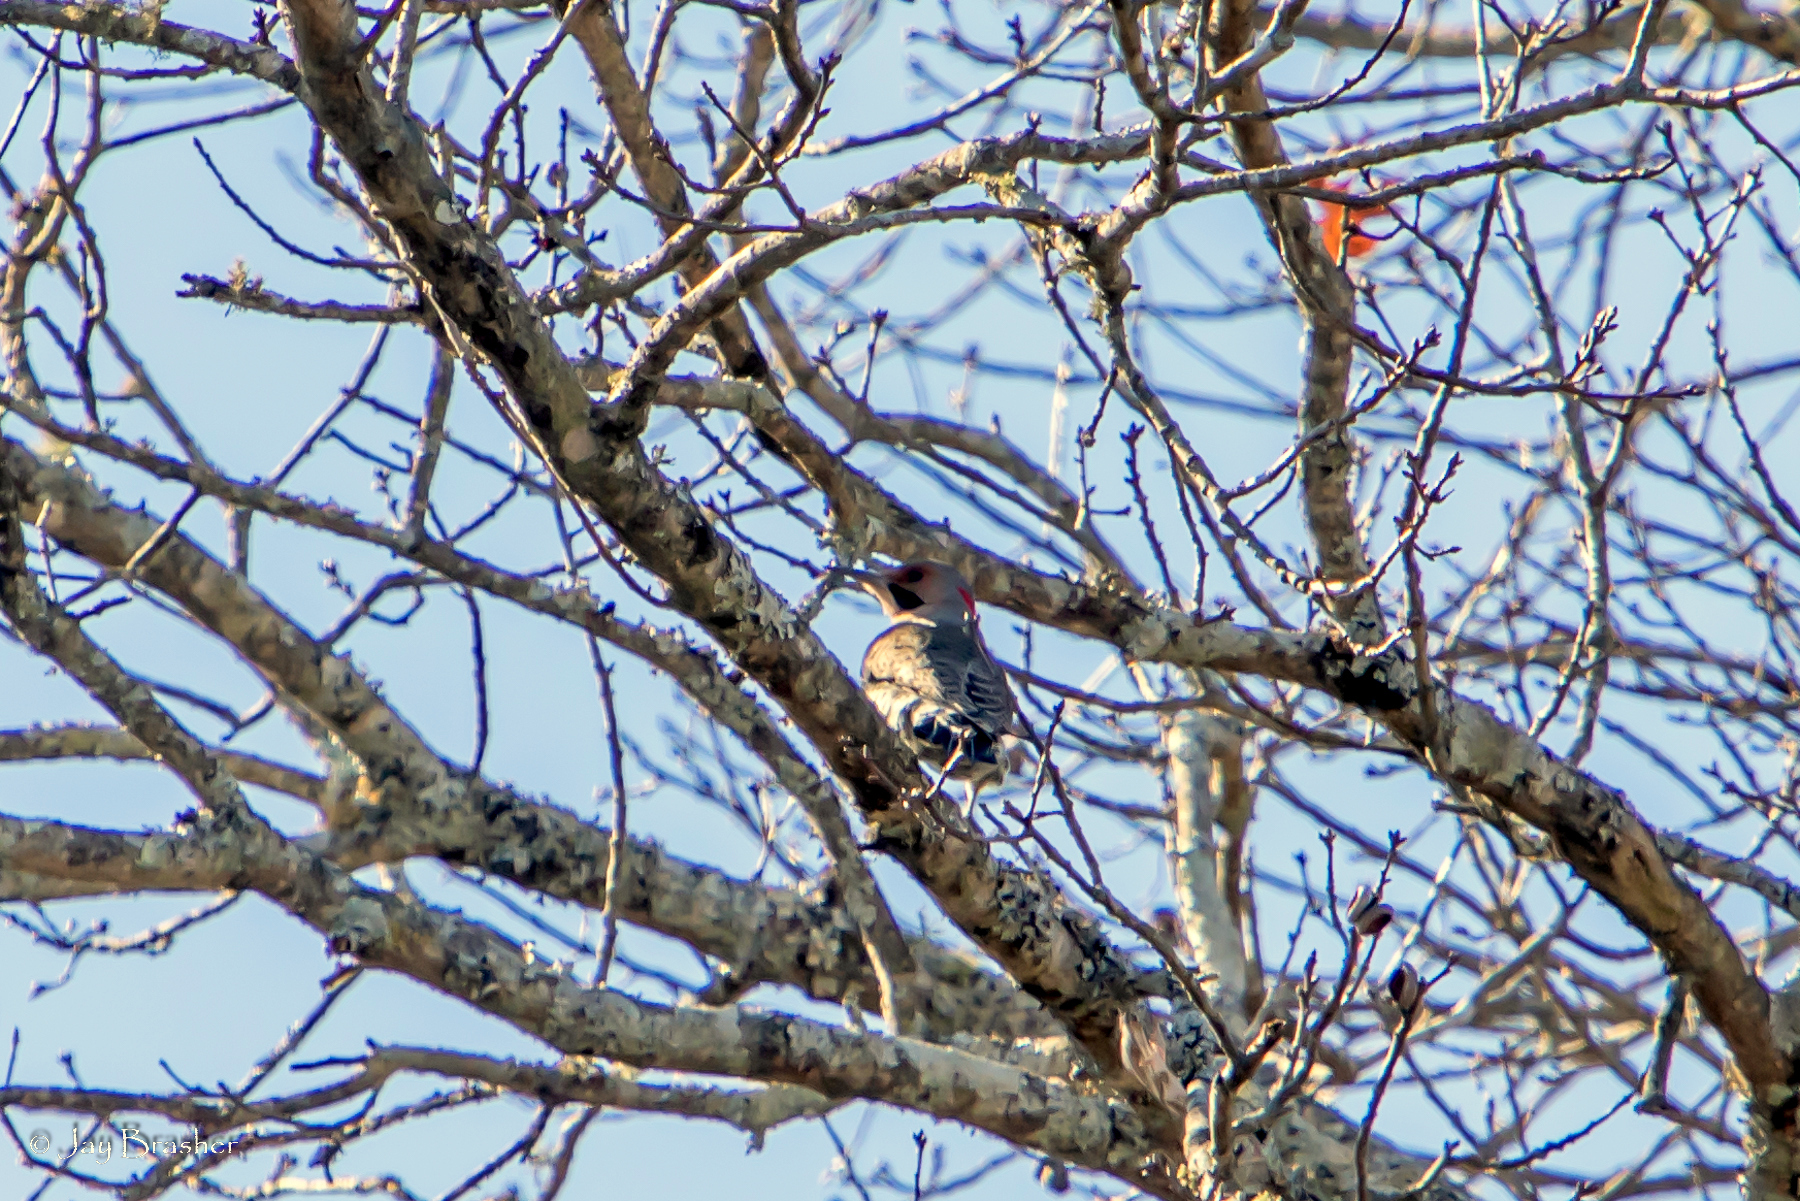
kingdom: Animalia
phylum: Chordata
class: Aves
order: Piciformes
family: Picidae
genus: Colaptes
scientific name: Colaptes auratus
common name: Northern flicker
